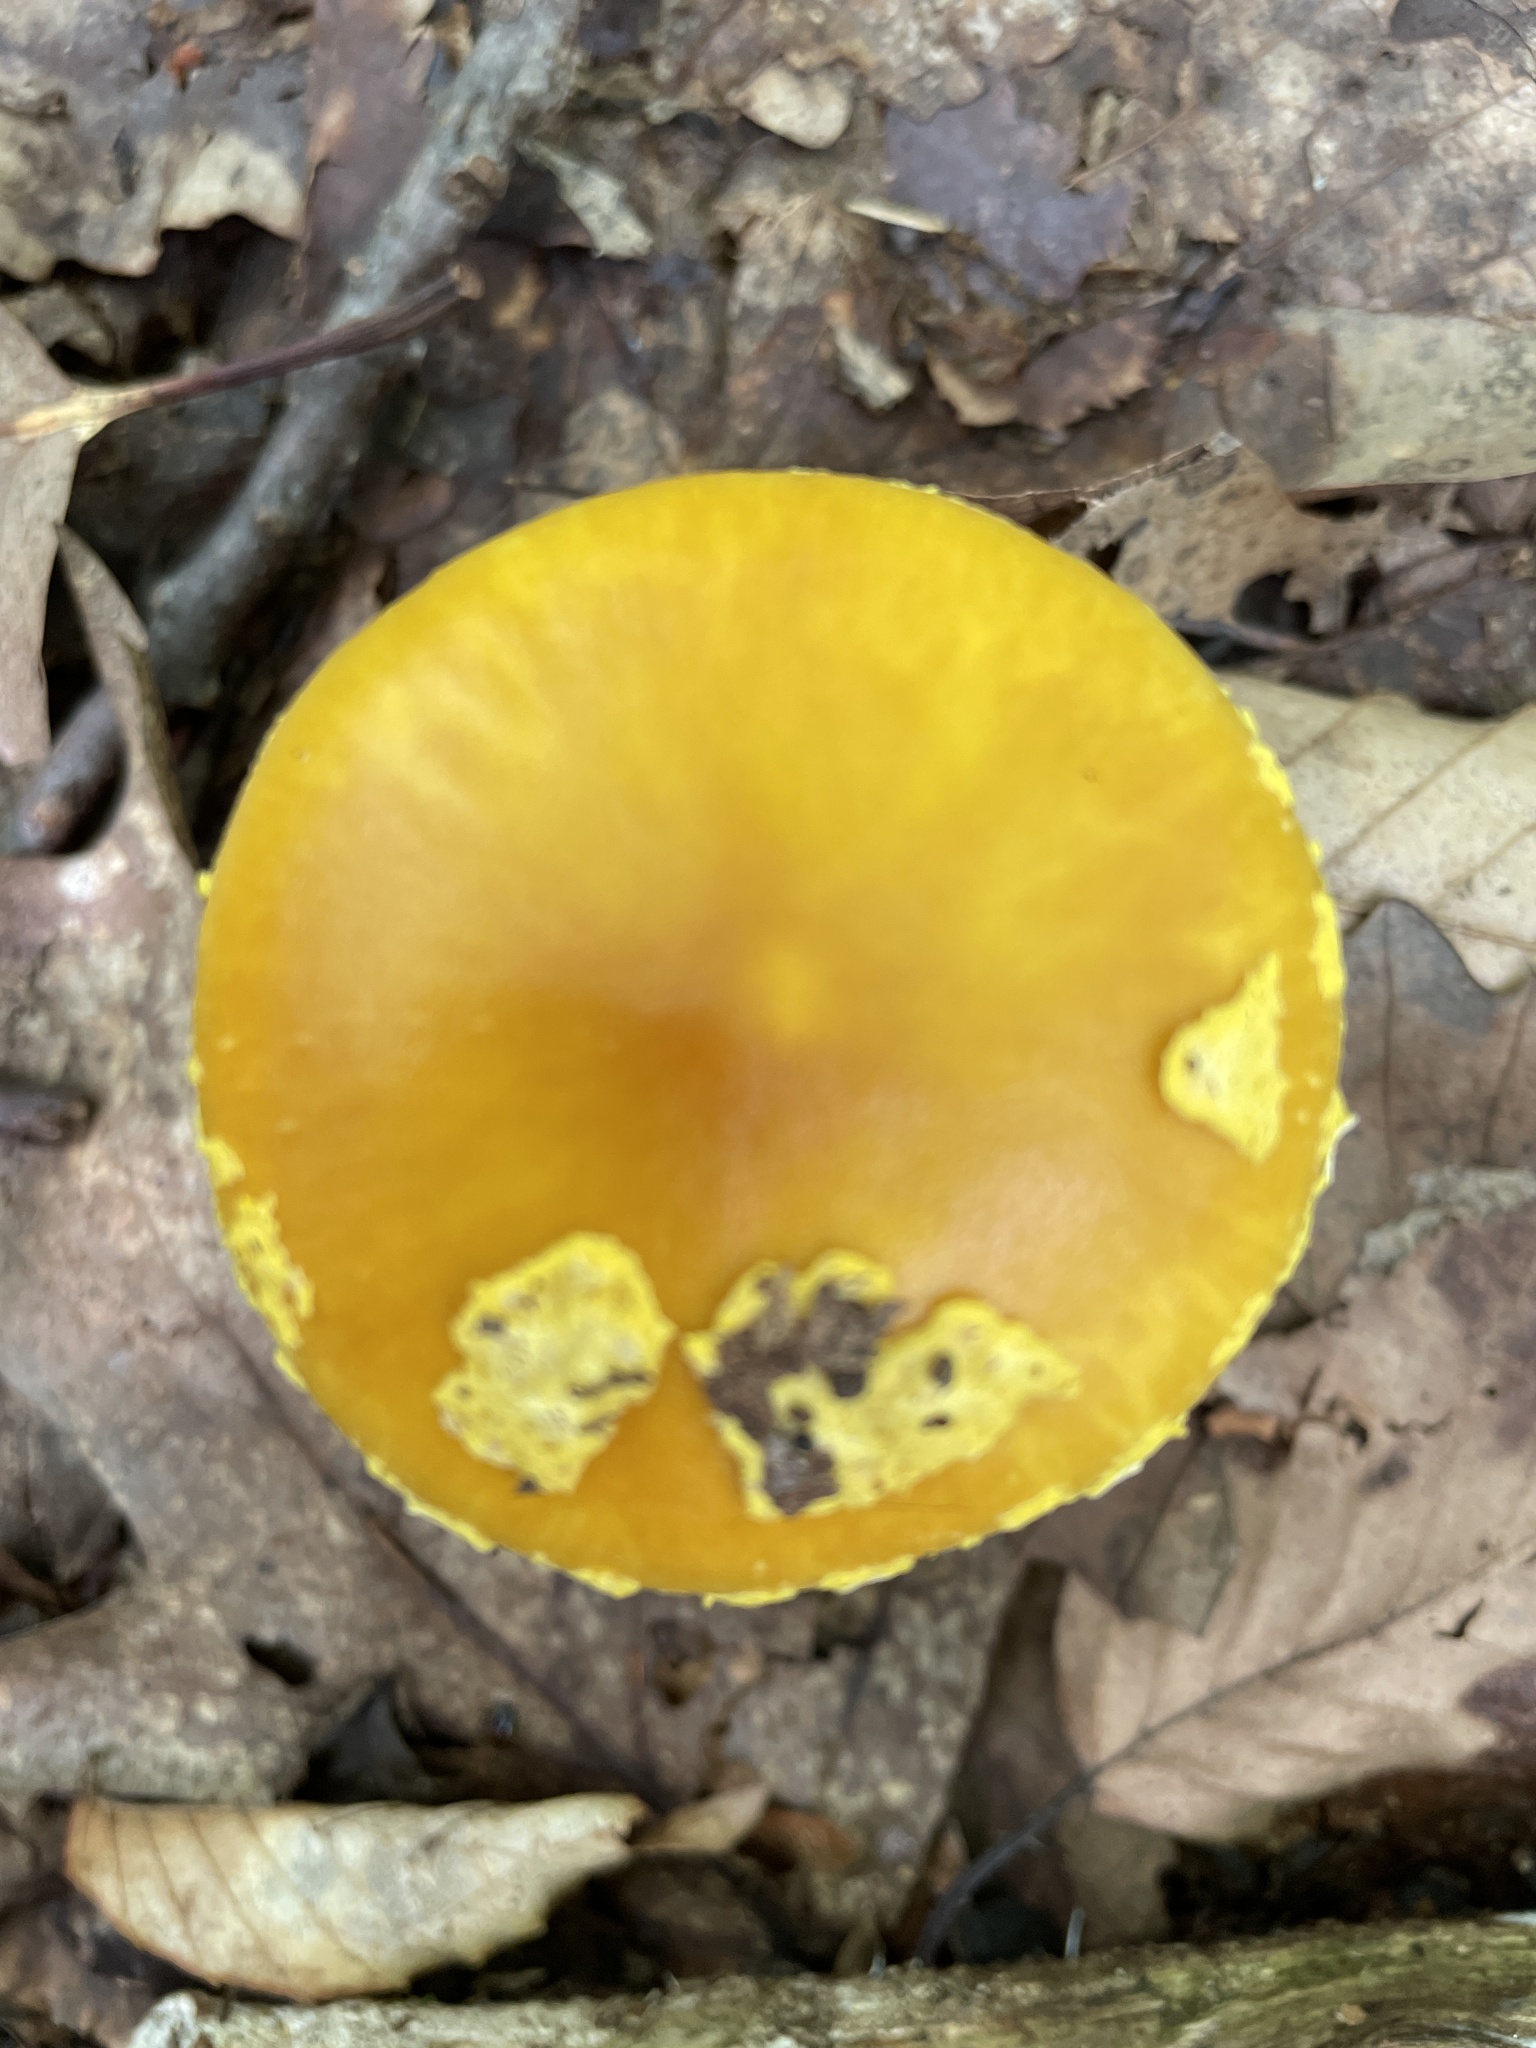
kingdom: Fungi
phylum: Basidiomycota
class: Agaricomycetes
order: Agaricales
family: Amanitaceae
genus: Amanita
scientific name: Amanita flavoconia
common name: Yellow patches
